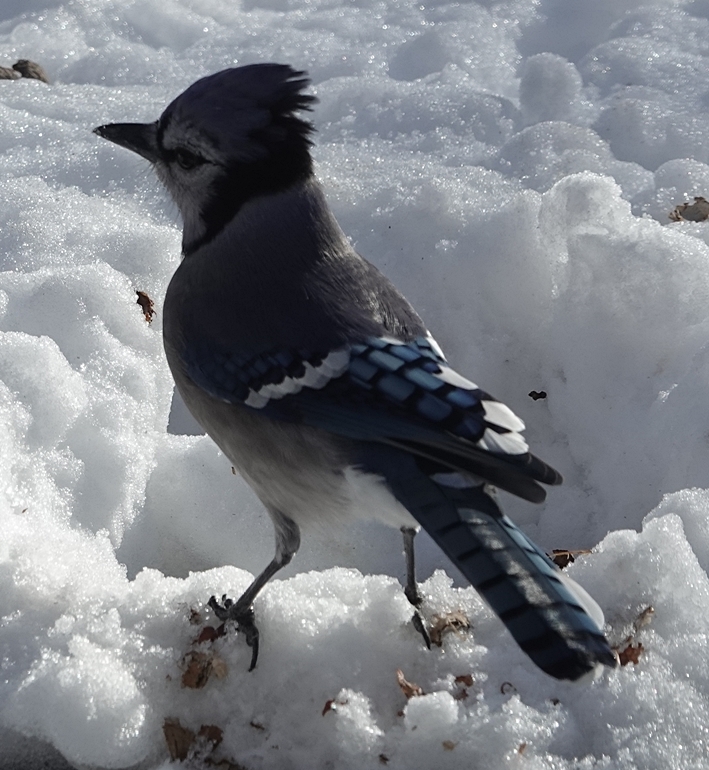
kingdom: Animalia
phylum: Chordata
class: Aves
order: Passeriformes
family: Corvidae
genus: Cyanocitta
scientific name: Cyanocitta cristata
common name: Blue jay
